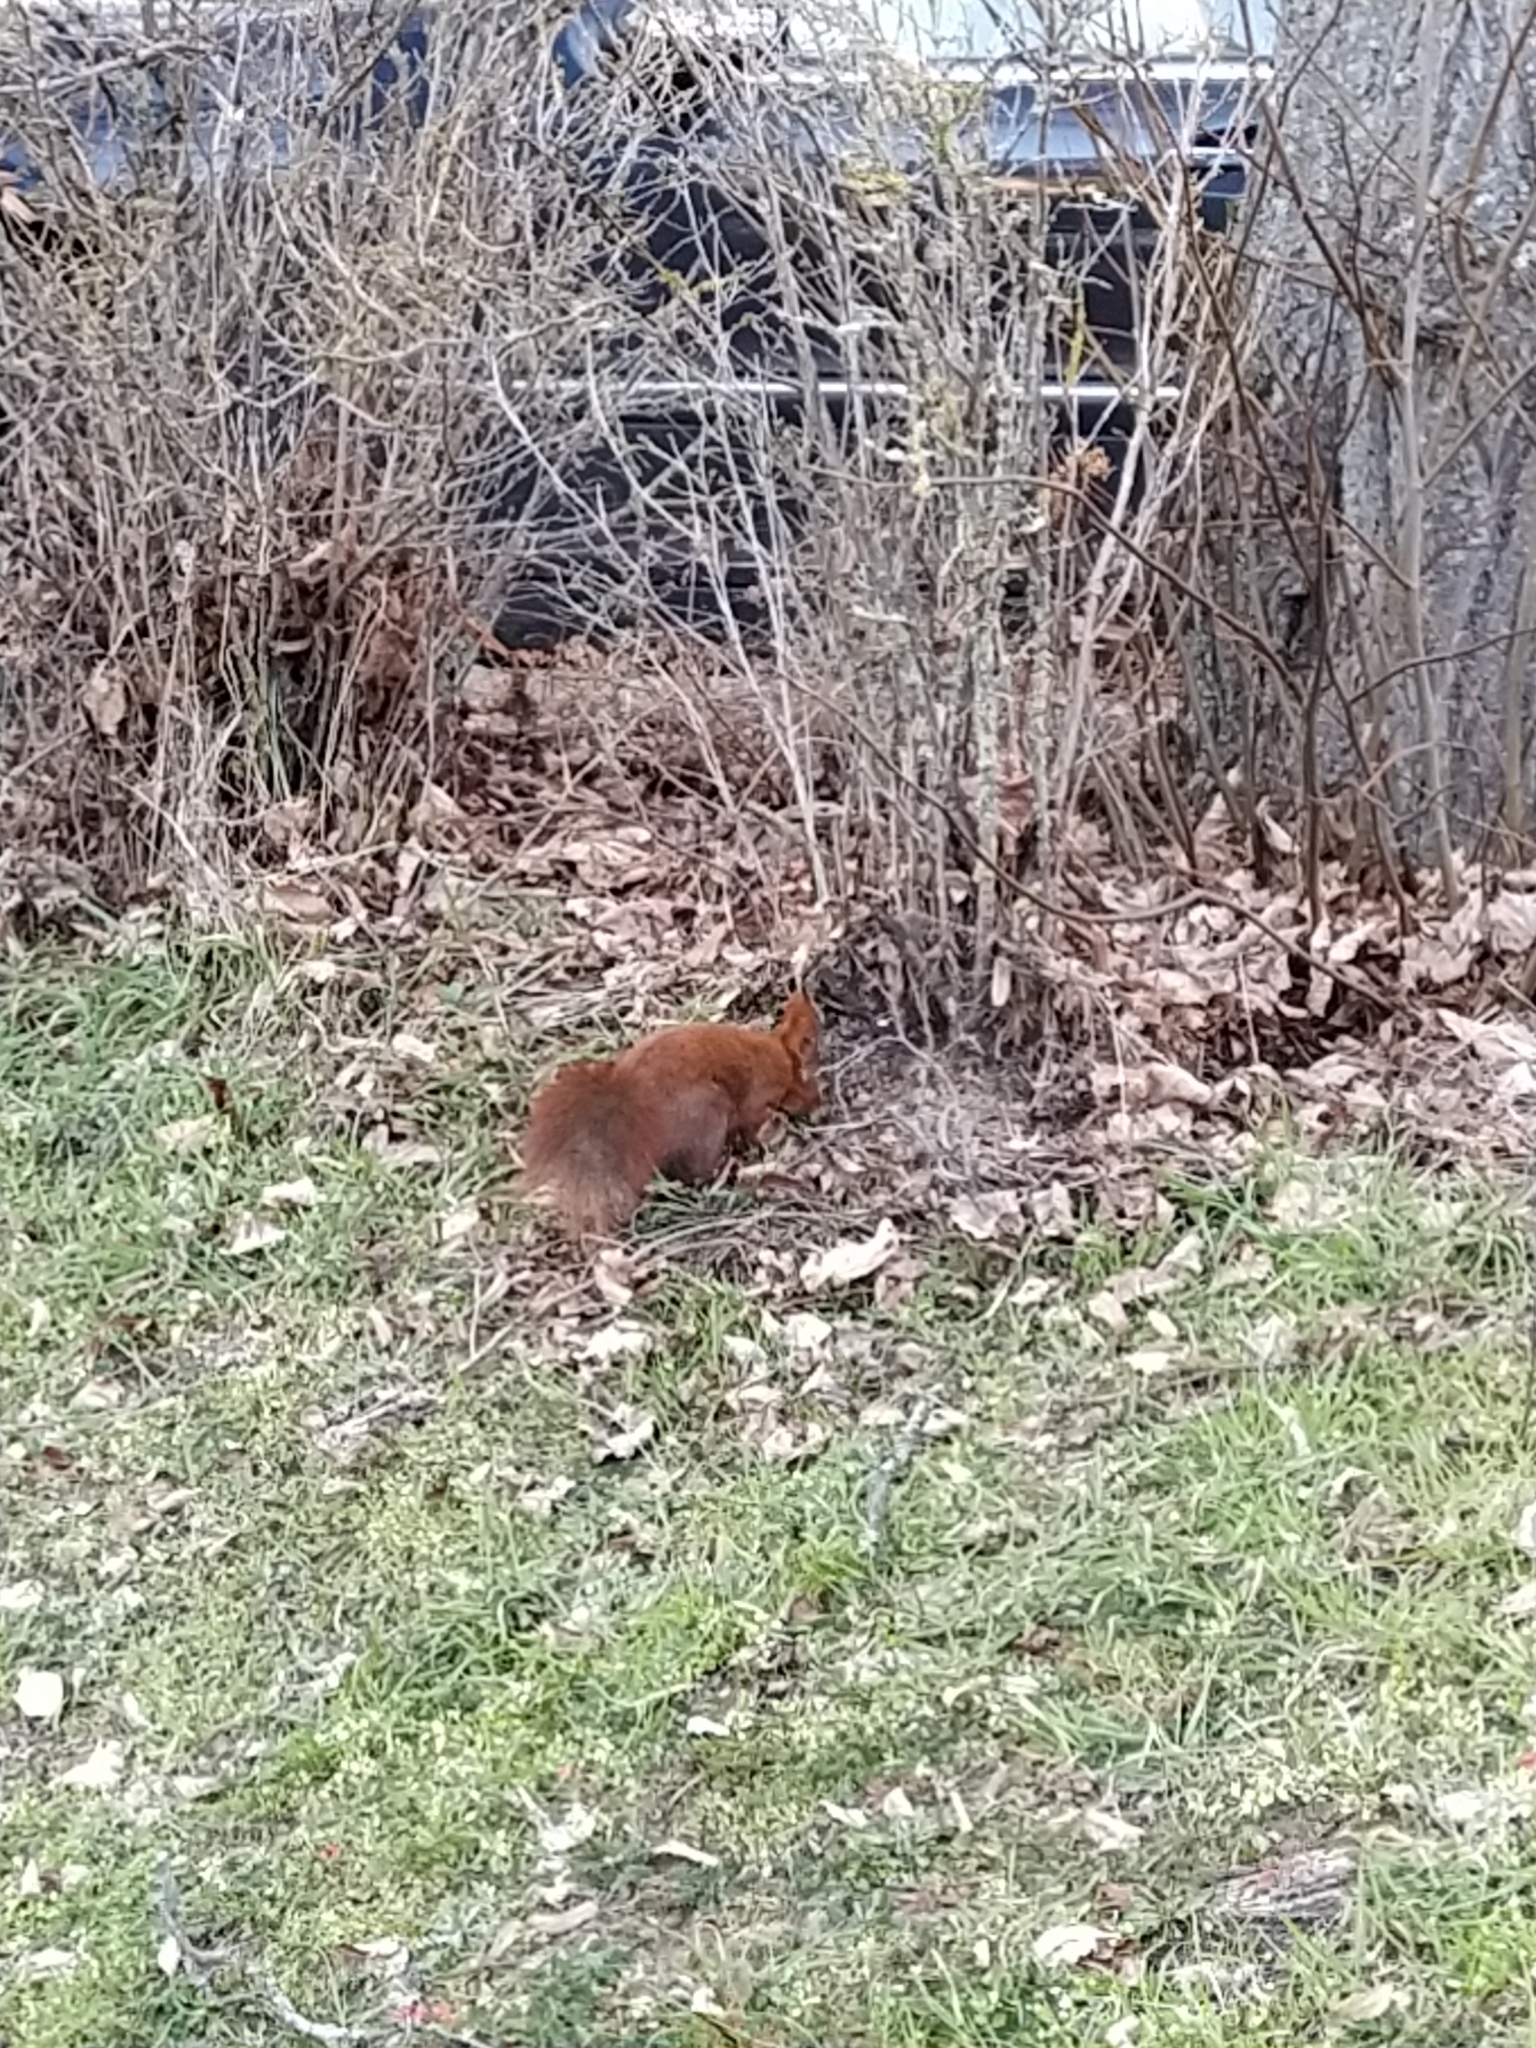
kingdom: Animalia
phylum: Chordata
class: Mammalia
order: Rodentia
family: Sciuridae
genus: Sciurus
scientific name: Sciurus vulgaris
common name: Eurasian red squirrel
